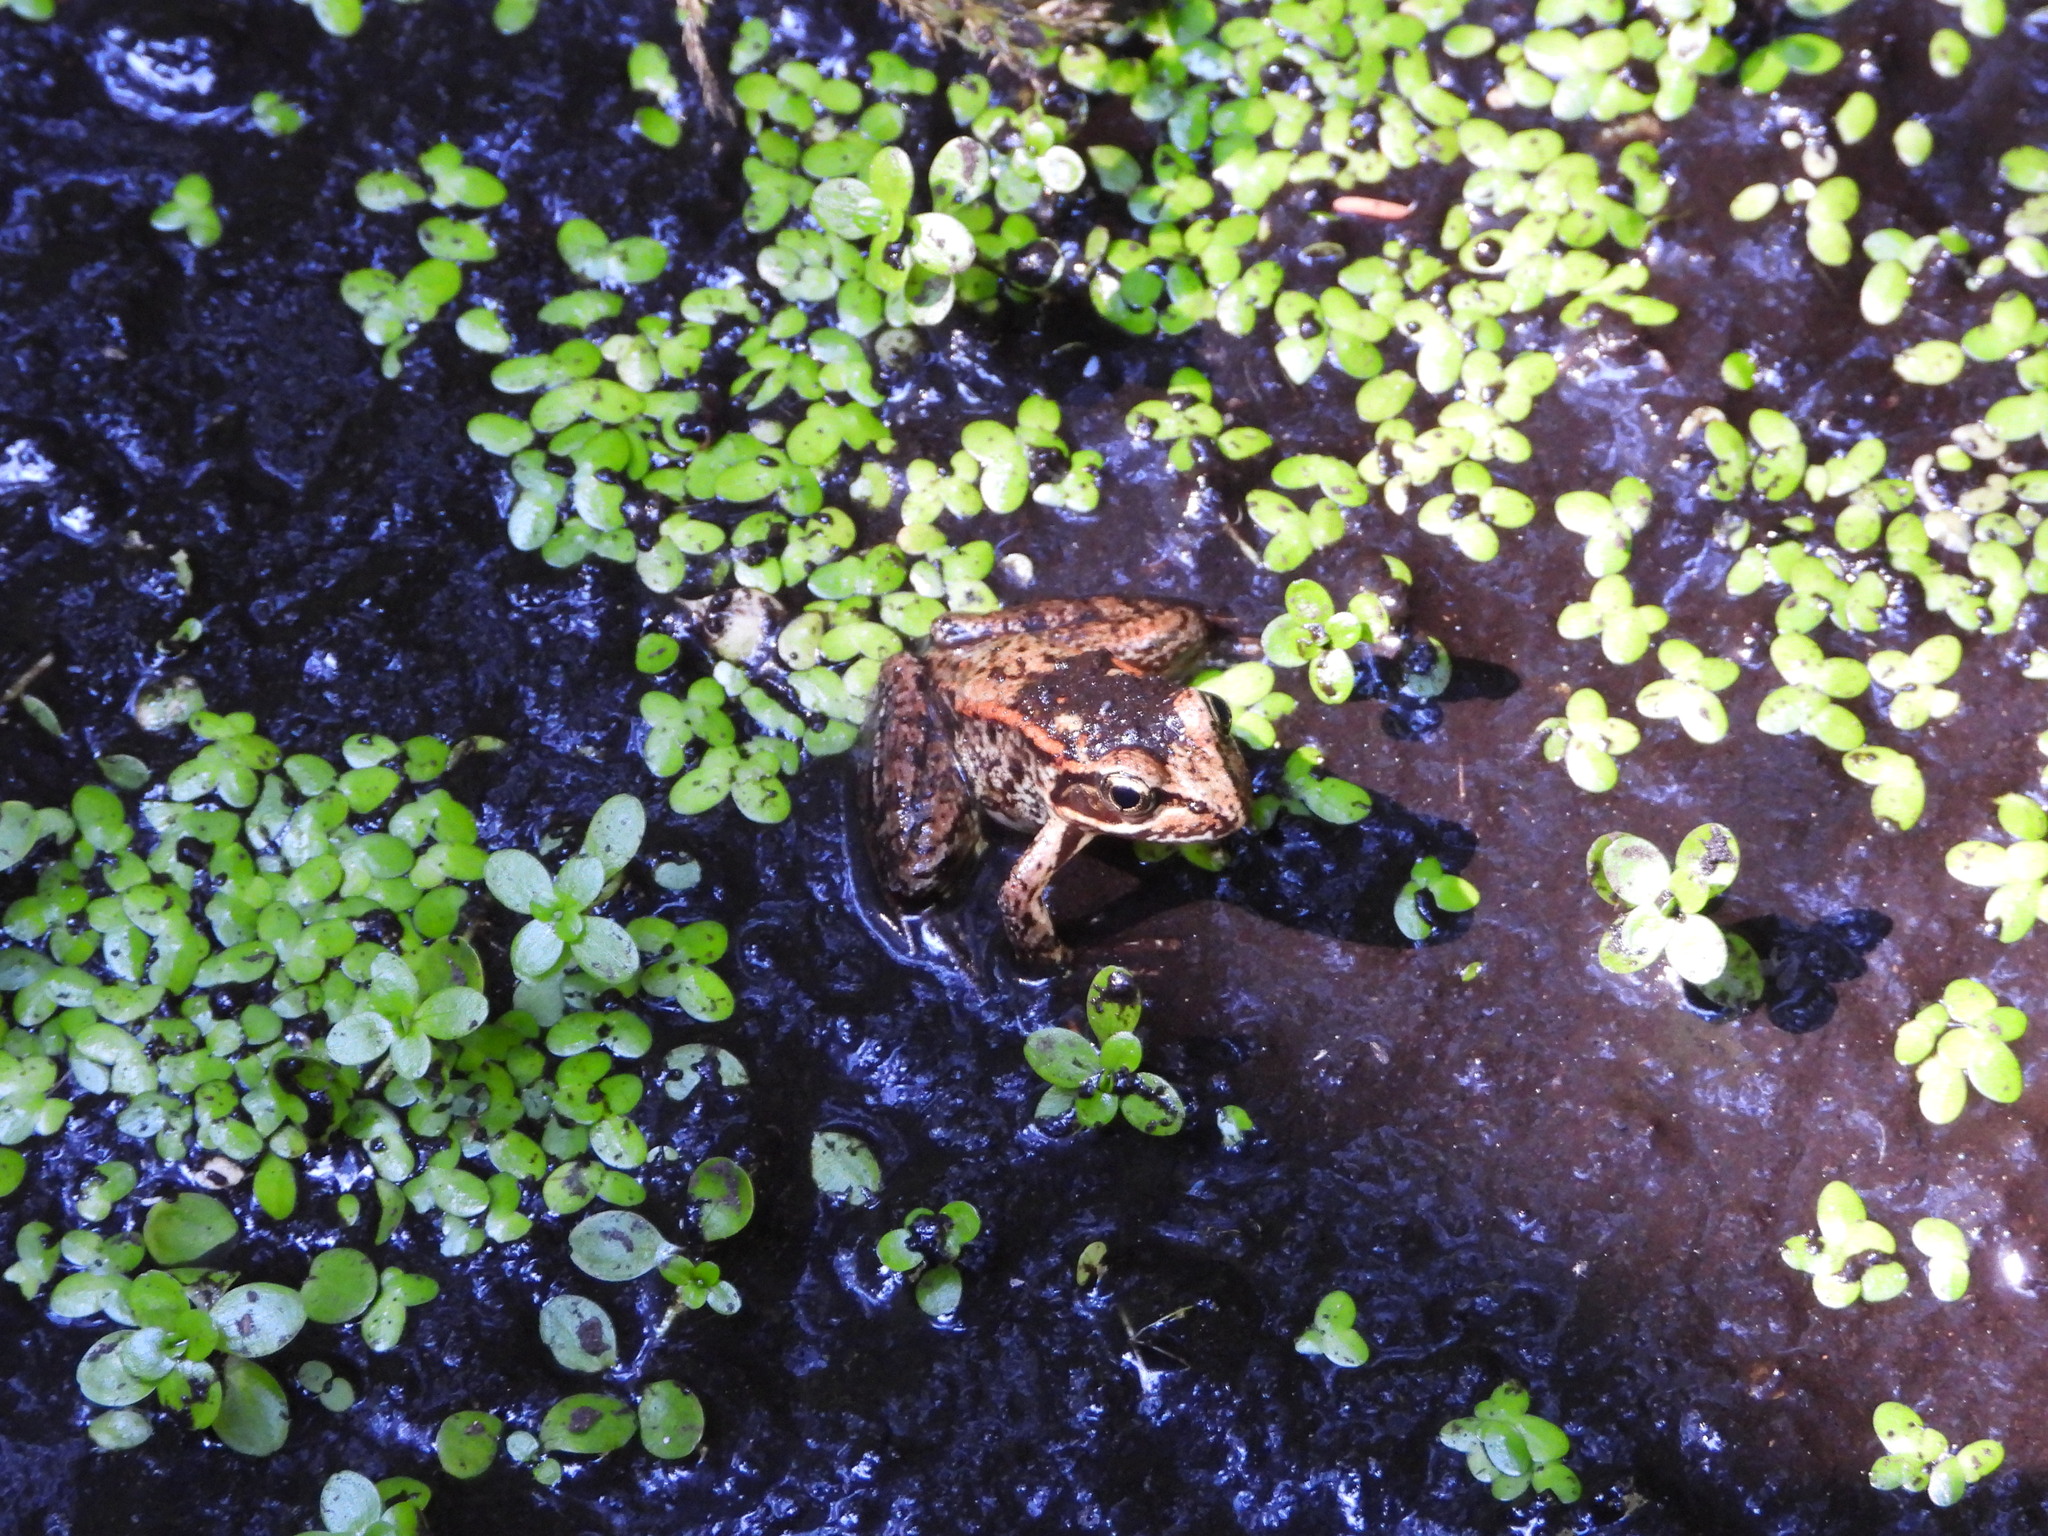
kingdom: Animalia
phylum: Chordata
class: Amphibia
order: Anura
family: Ranidae
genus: Rana
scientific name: Rana aurora
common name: Red-legged frog
